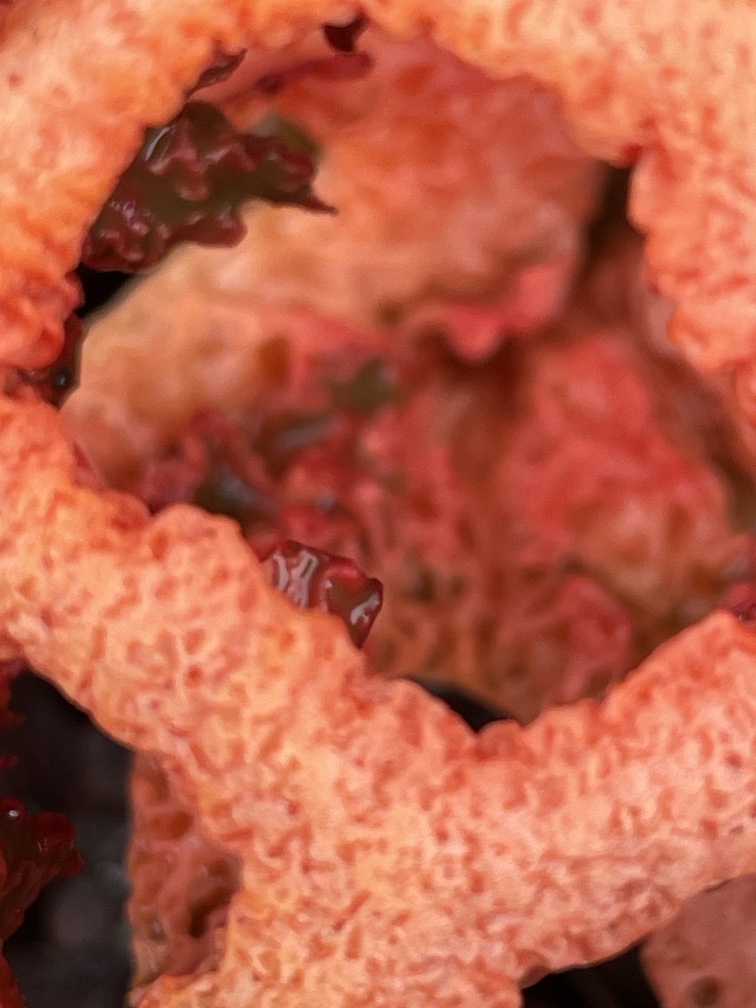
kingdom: Fungi
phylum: Basidiomycota
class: Agaricomycetes
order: Phallales
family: Phallaceae
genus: Clathrus
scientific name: Clathrus ruber
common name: Red cage
